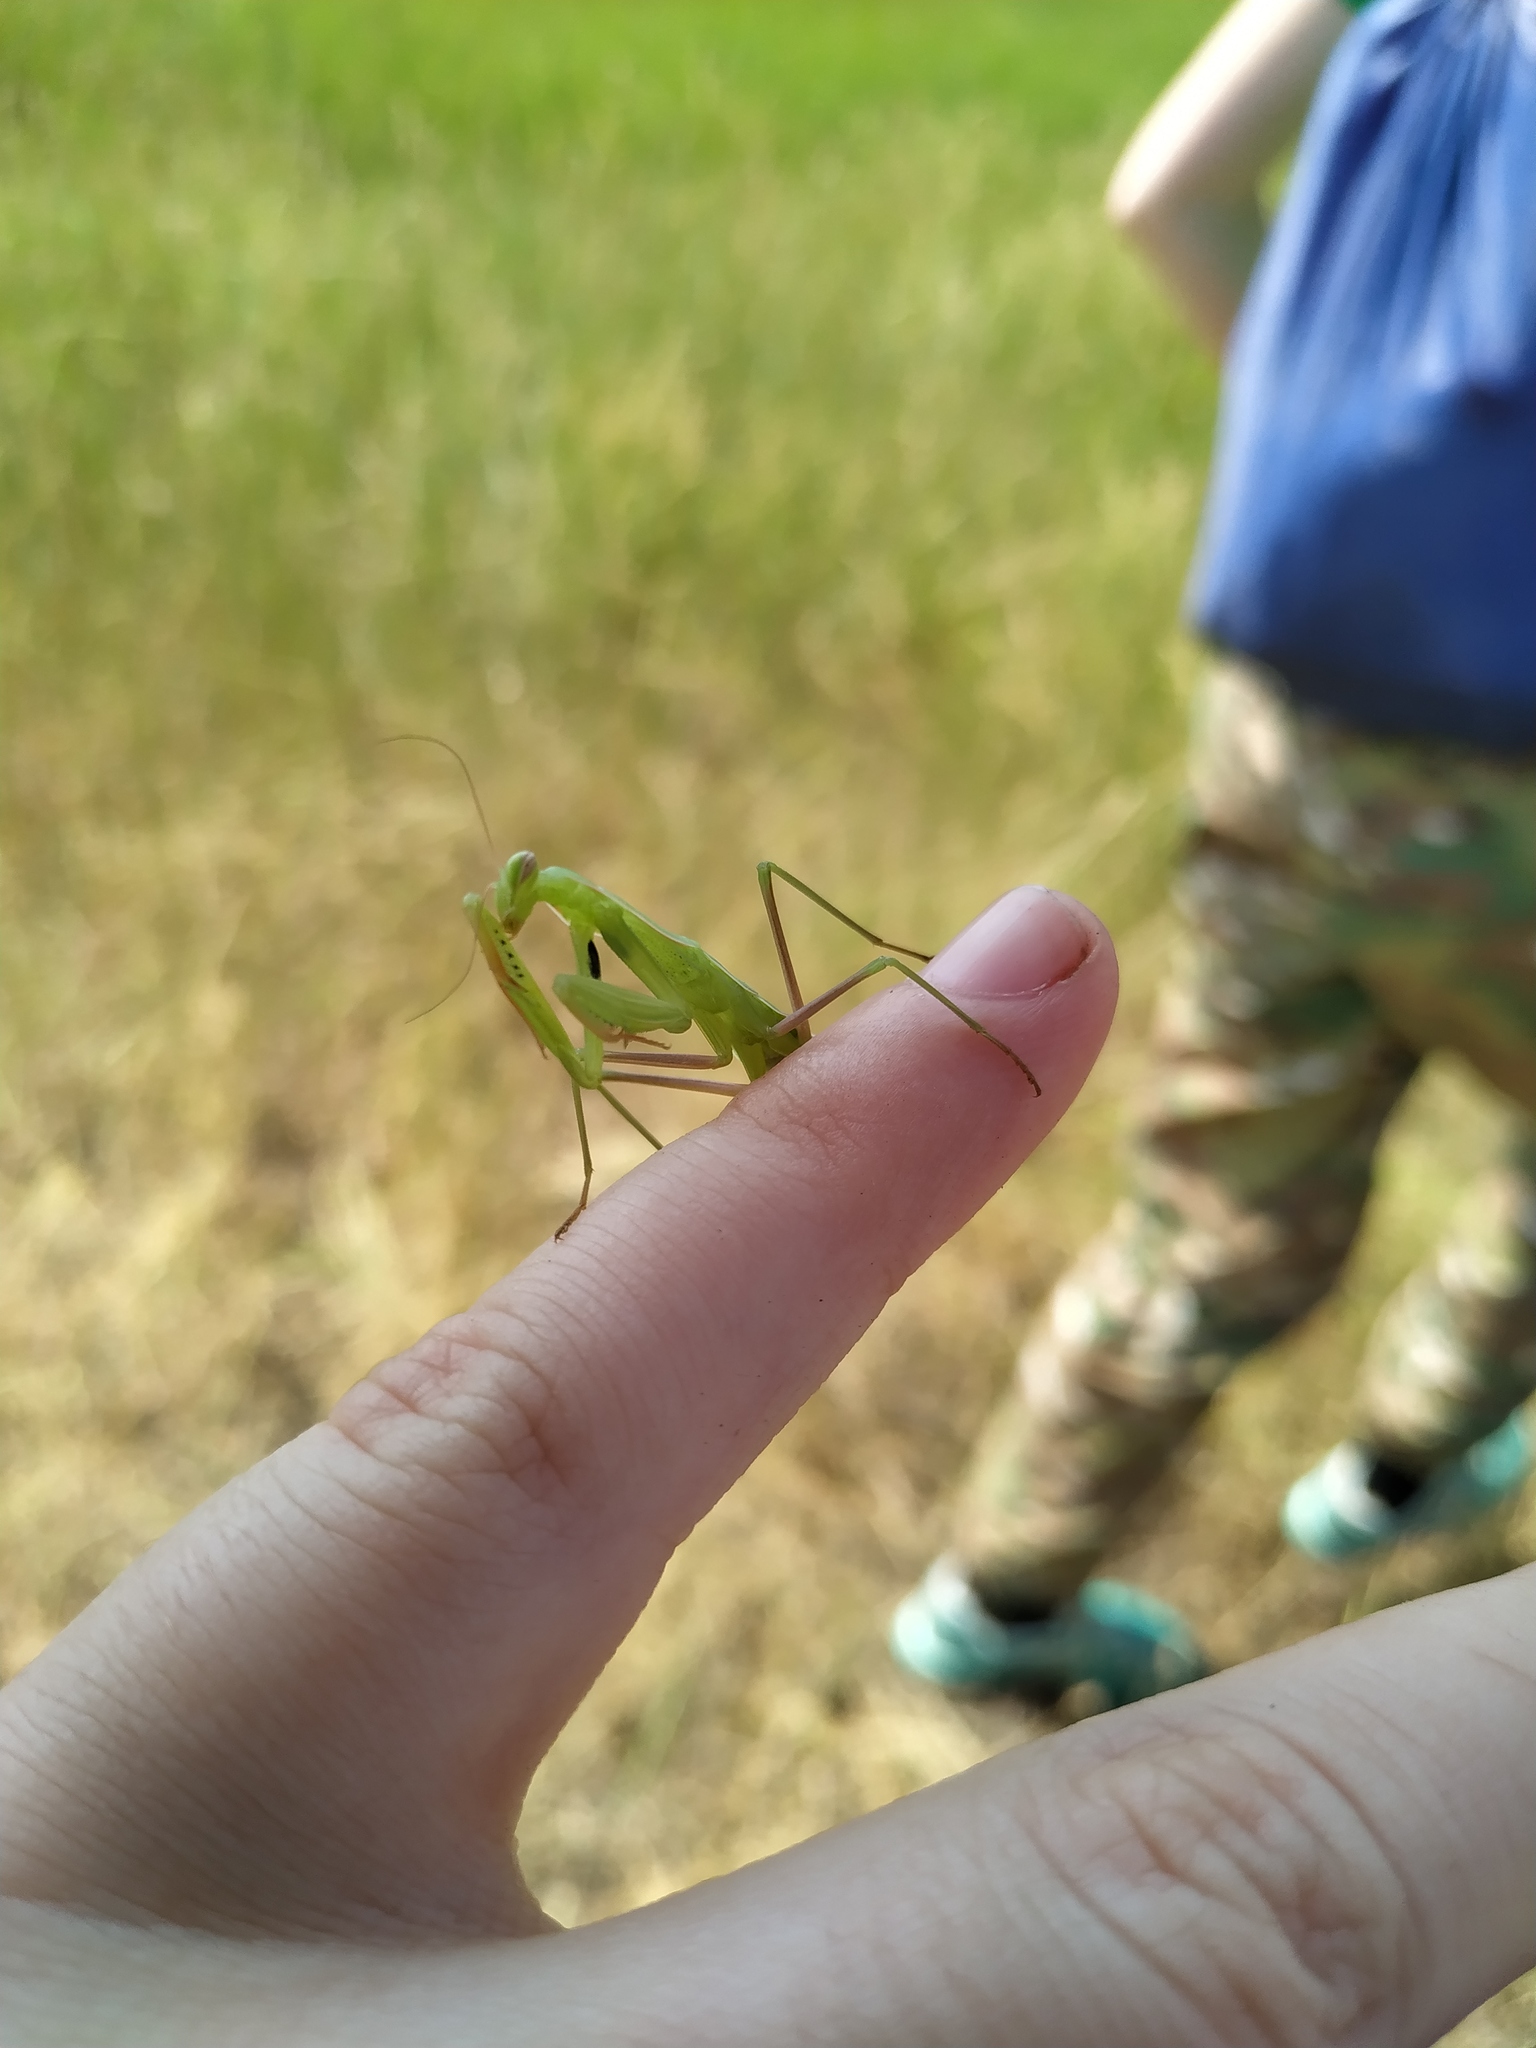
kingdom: Animalia
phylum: Arthropoda
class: Insecta
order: Mantodea
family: Mantidae
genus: Mantis
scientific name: Mantis religiosa
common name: Praying mantis
